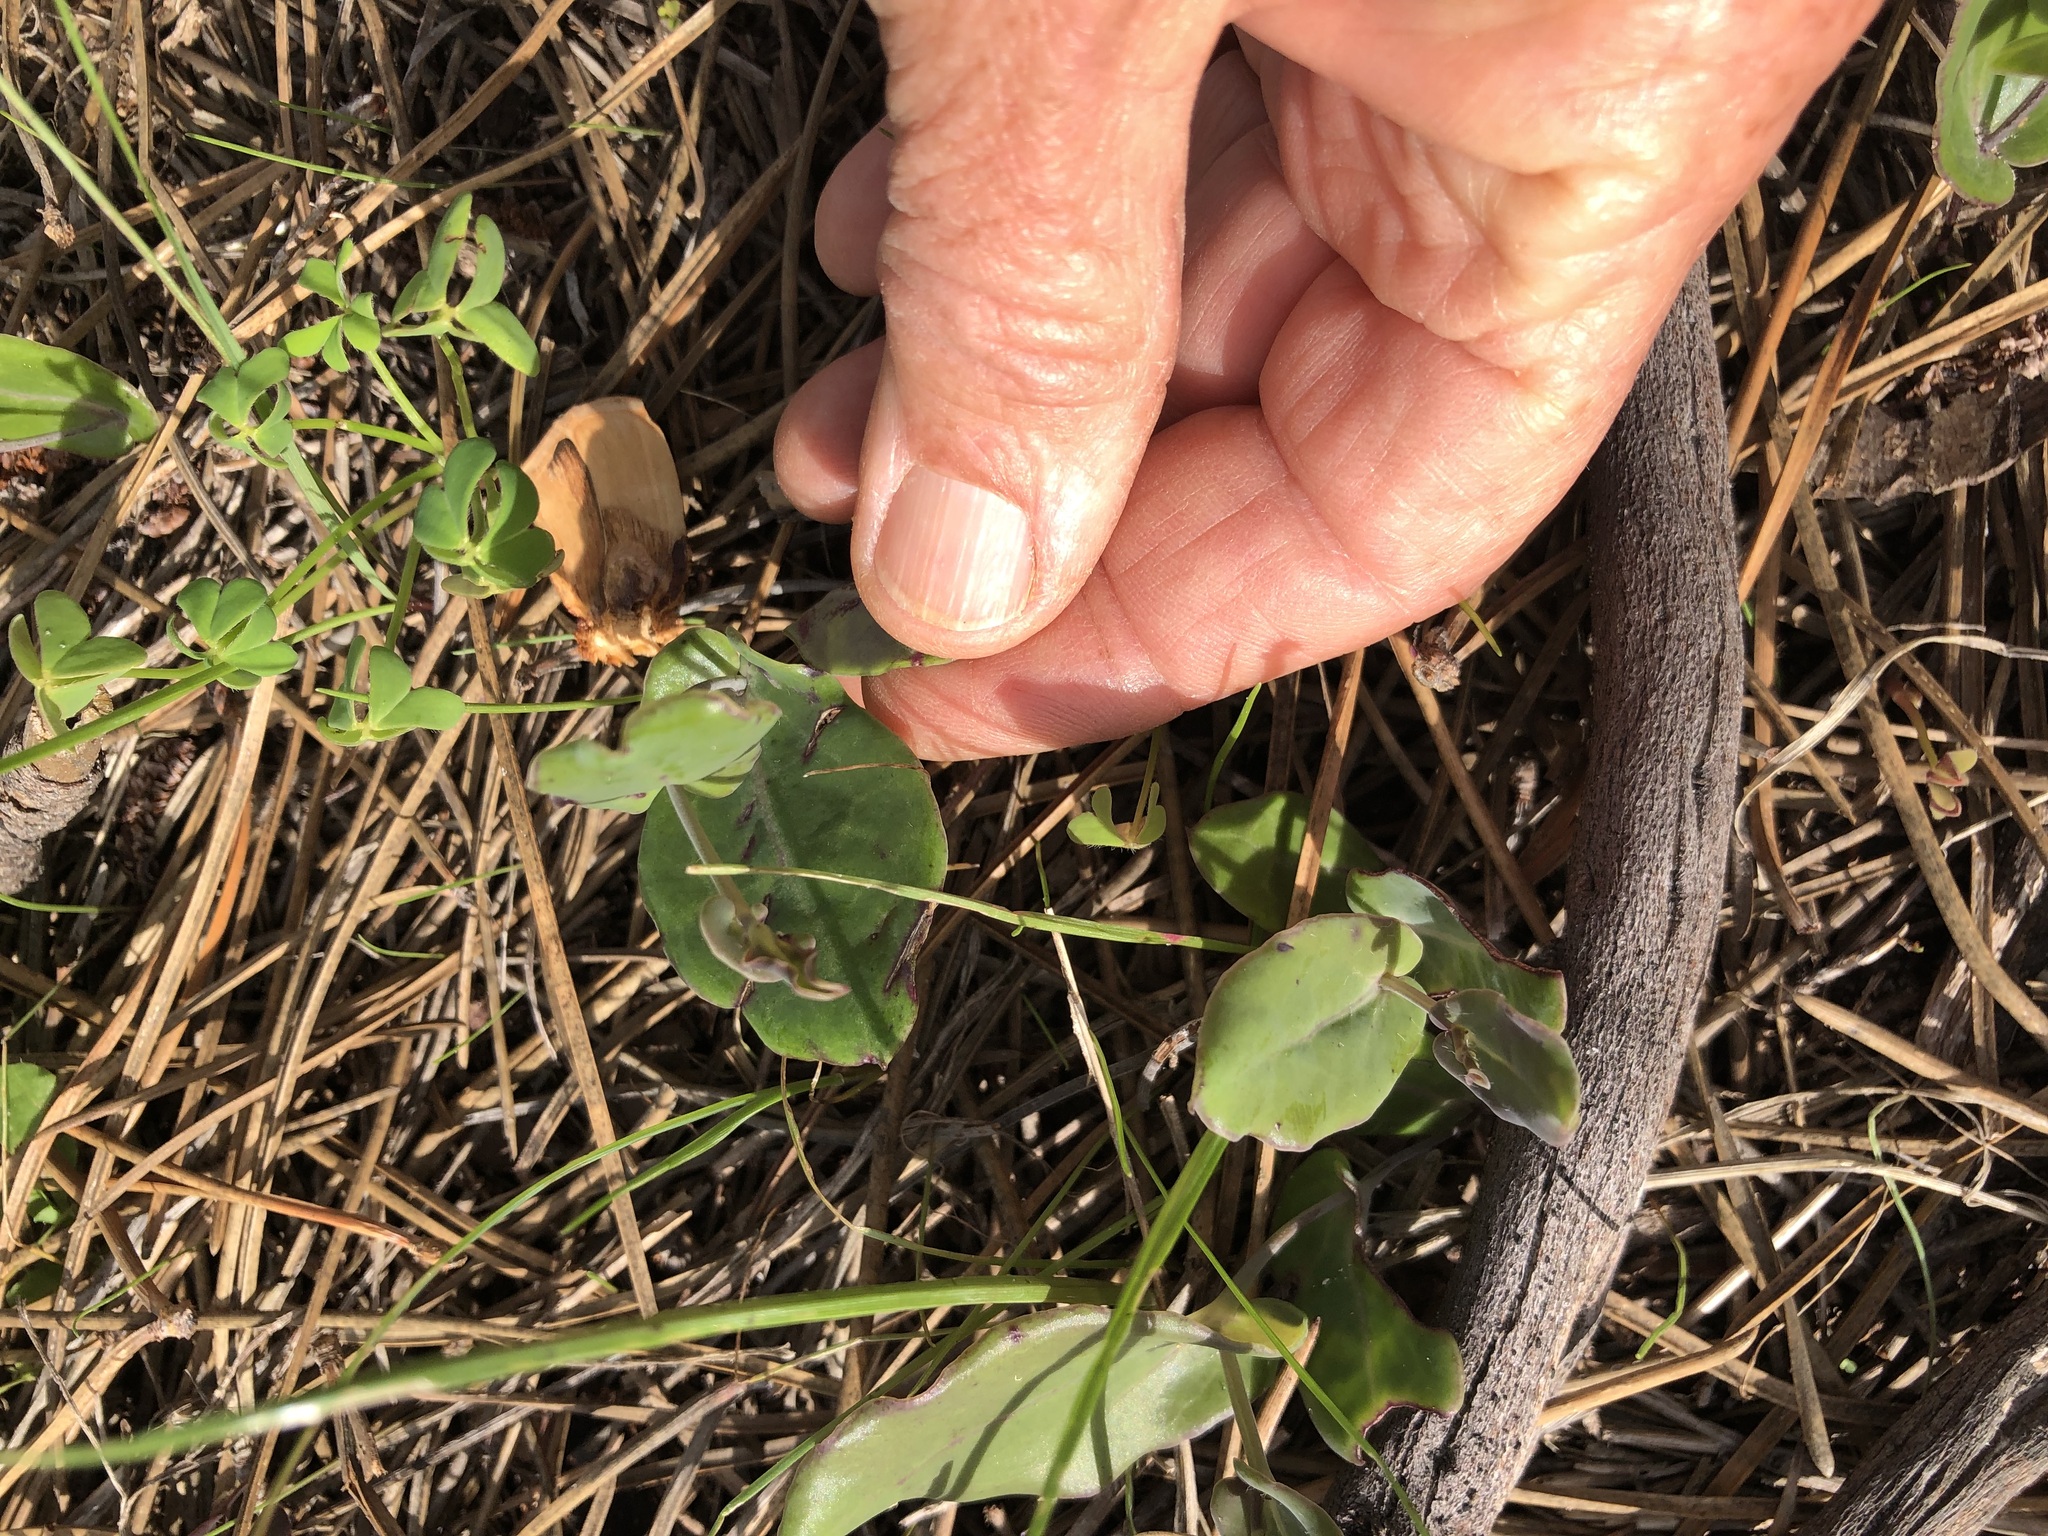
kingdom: Plantae
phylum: Tracheophyta
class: Magnoliopsida
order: Asterales
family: Asteraceae
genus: Othonna
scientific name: Othonna undulosa
